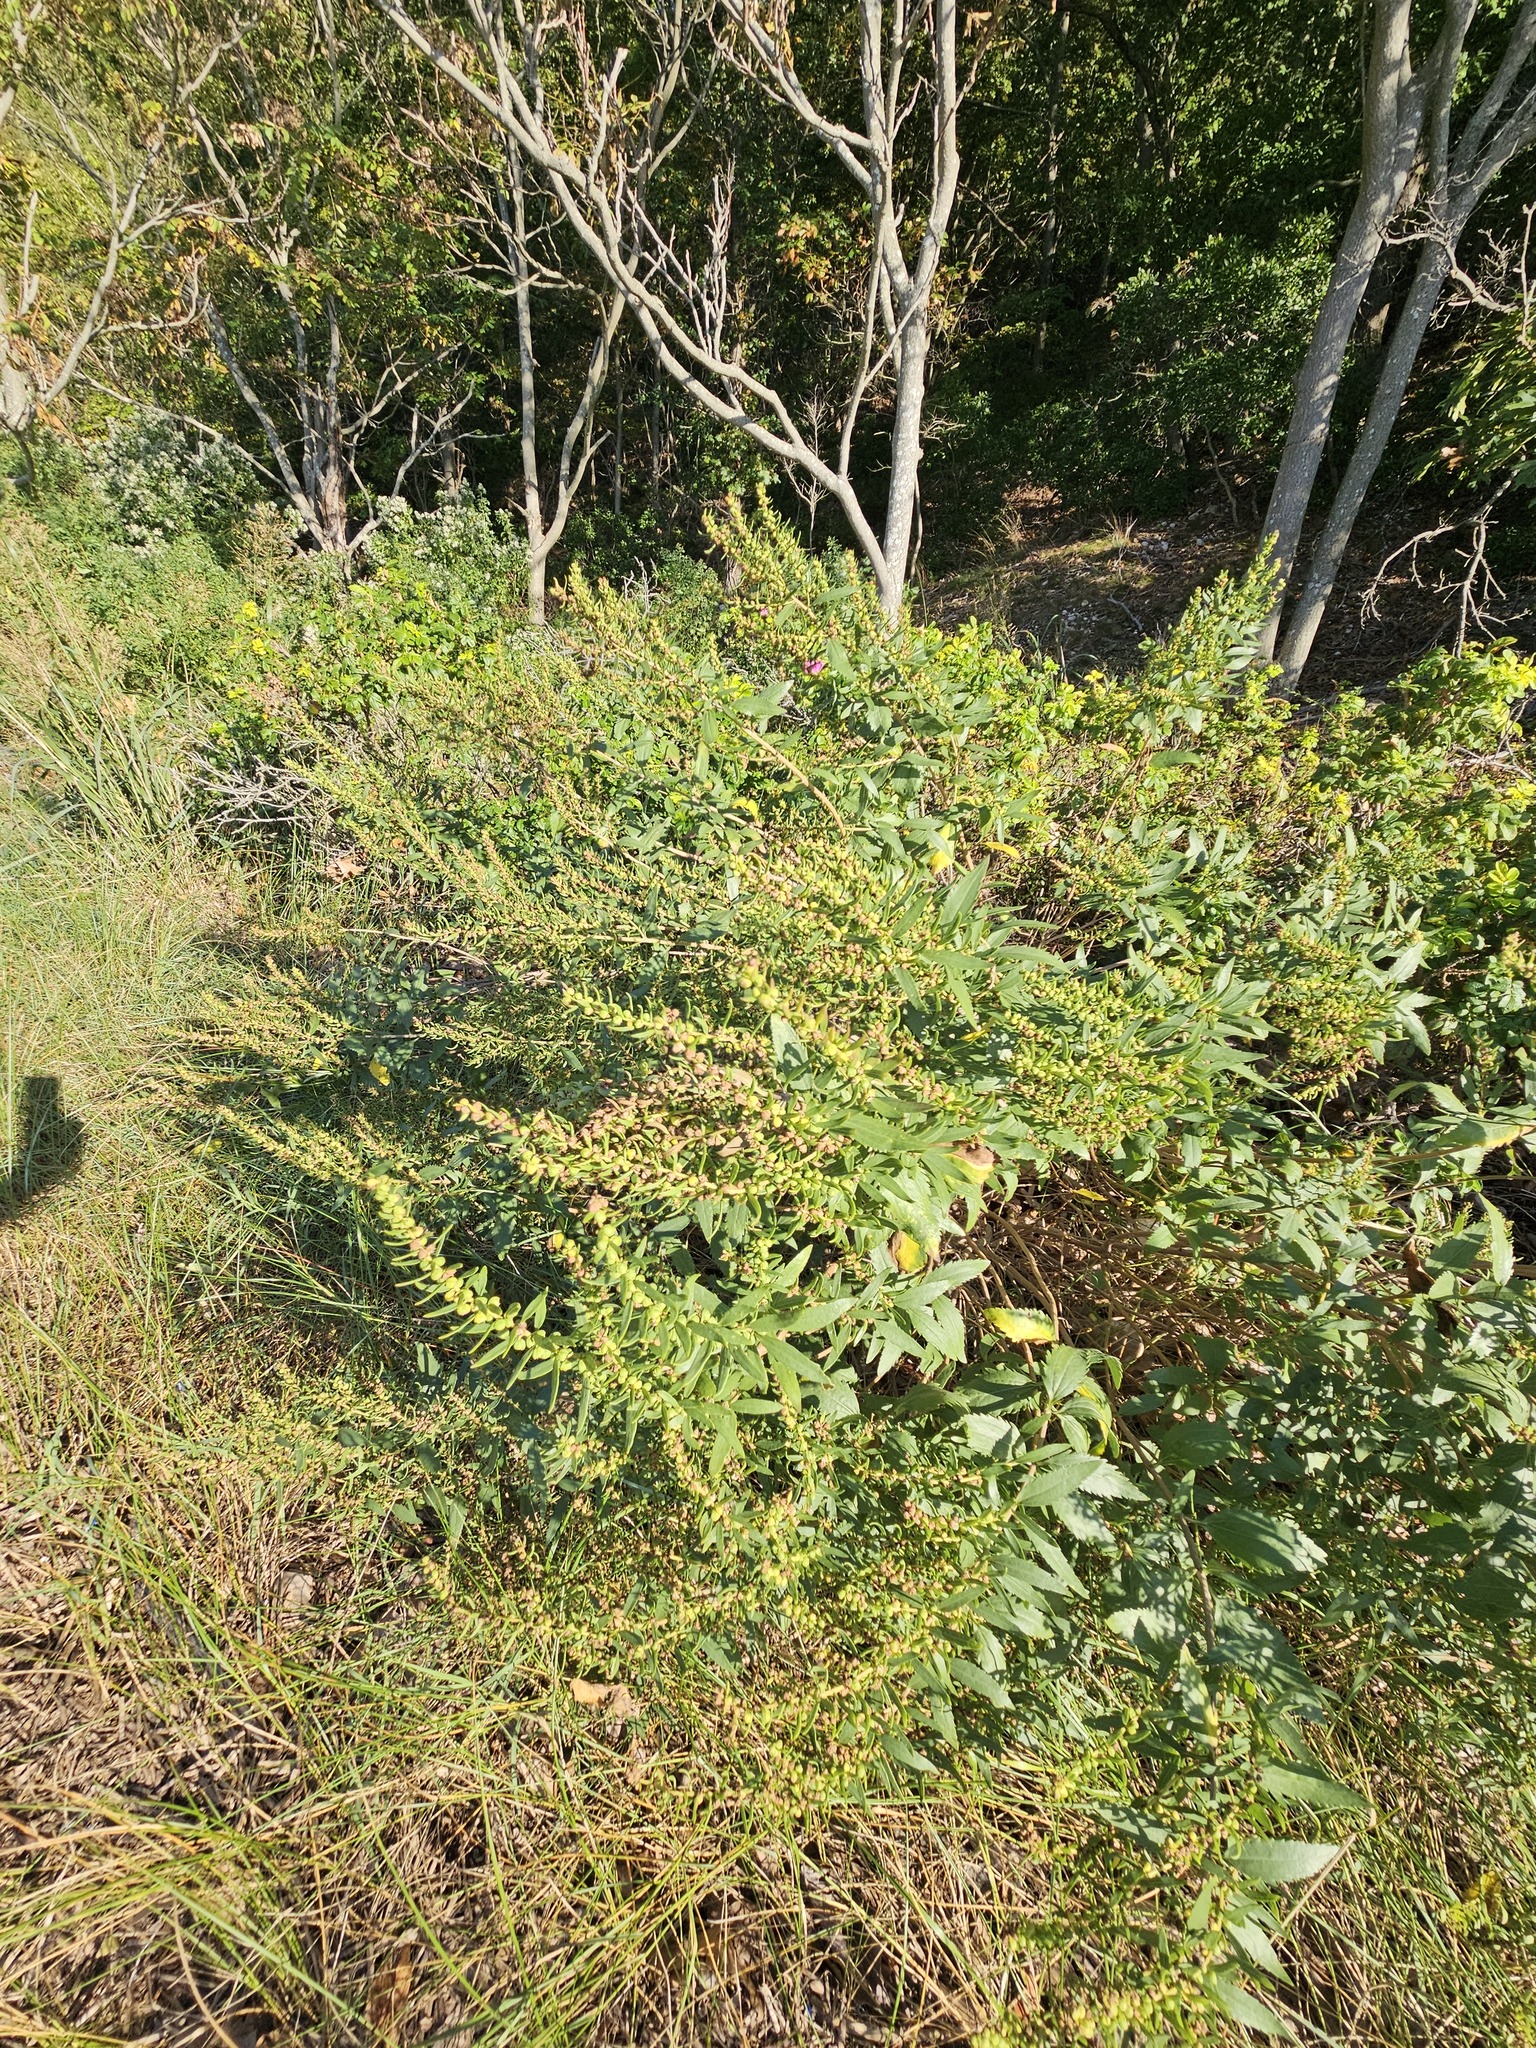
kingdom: Plantae
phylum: Tracheophyta
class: Magnoliopsida
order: Asterales
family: Asteraceae
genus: Iva
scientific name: Iva frutescens
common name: Big-leaved marsh-elder
